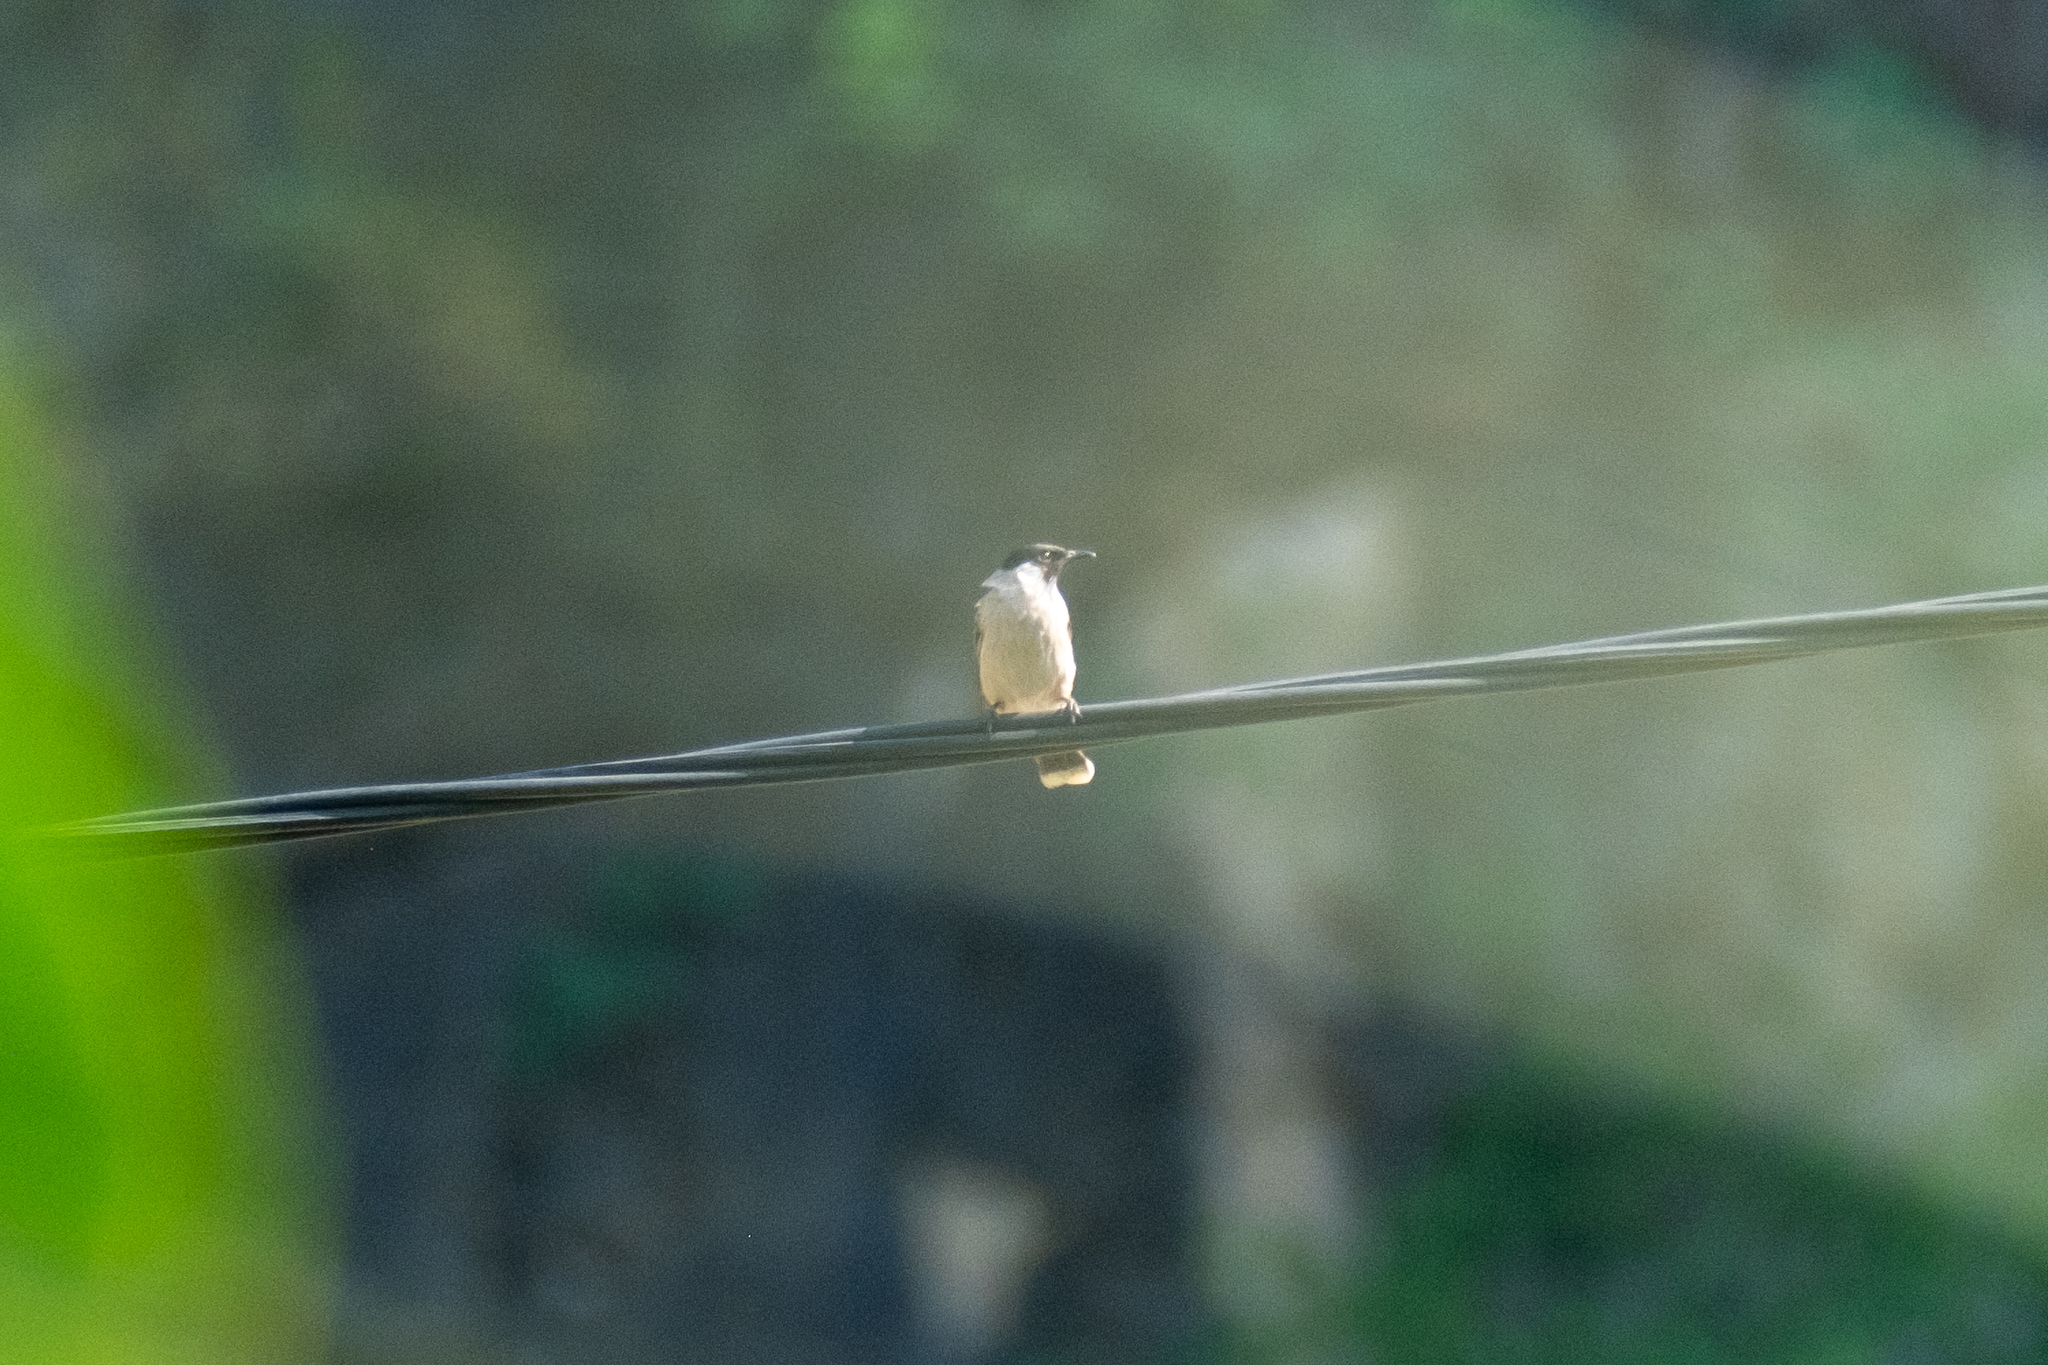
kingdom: Animalia
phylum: Chordata
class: Aves
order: Passeriformes
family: Pycnonotidae
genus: Pycnonotus
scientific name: Pycnonotus aurigaster
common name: Sooty-headed bulbul
